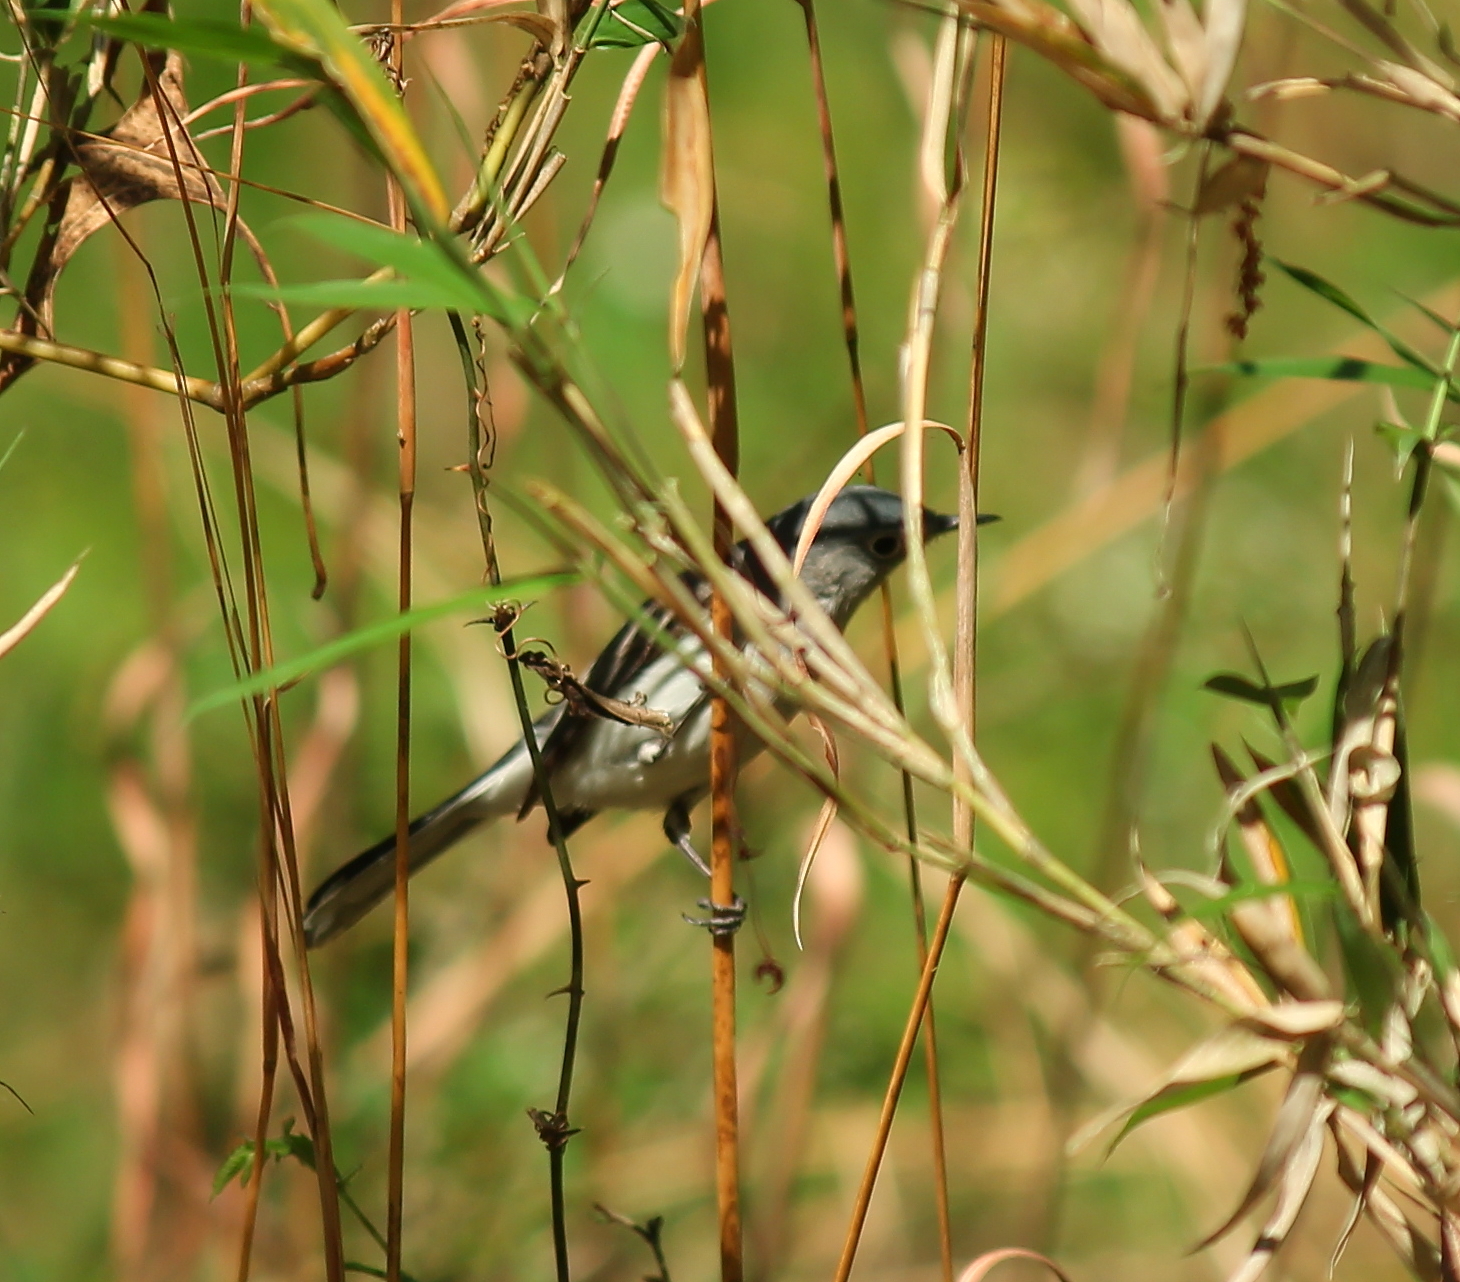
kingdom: Animalia
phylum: Chordata
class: Aves
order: Passeriformes
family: Polioptilidae
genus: Polioptila
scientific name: Polioptila caerulea
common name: Blue-gray gnatcatcher
